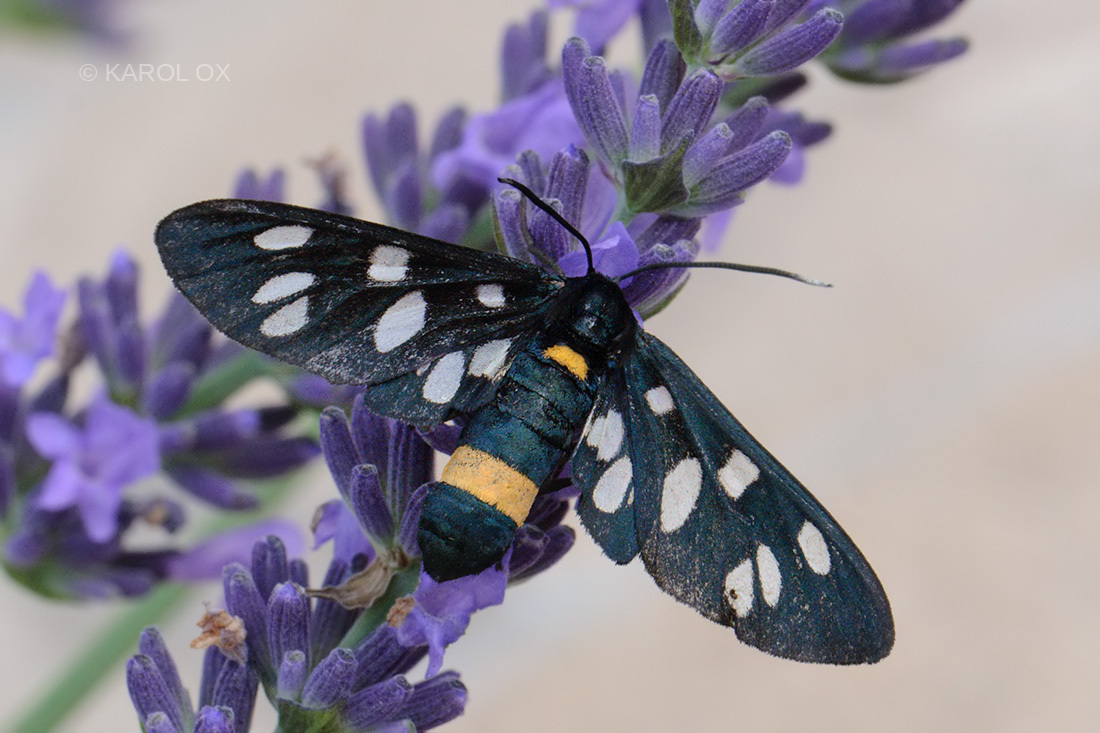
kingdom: Animalia
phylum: Arthropoda
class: Insecta
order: Lepidoptera
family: Erebidae
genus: Amata
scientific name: Amata phegea
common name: Nine-spotted
